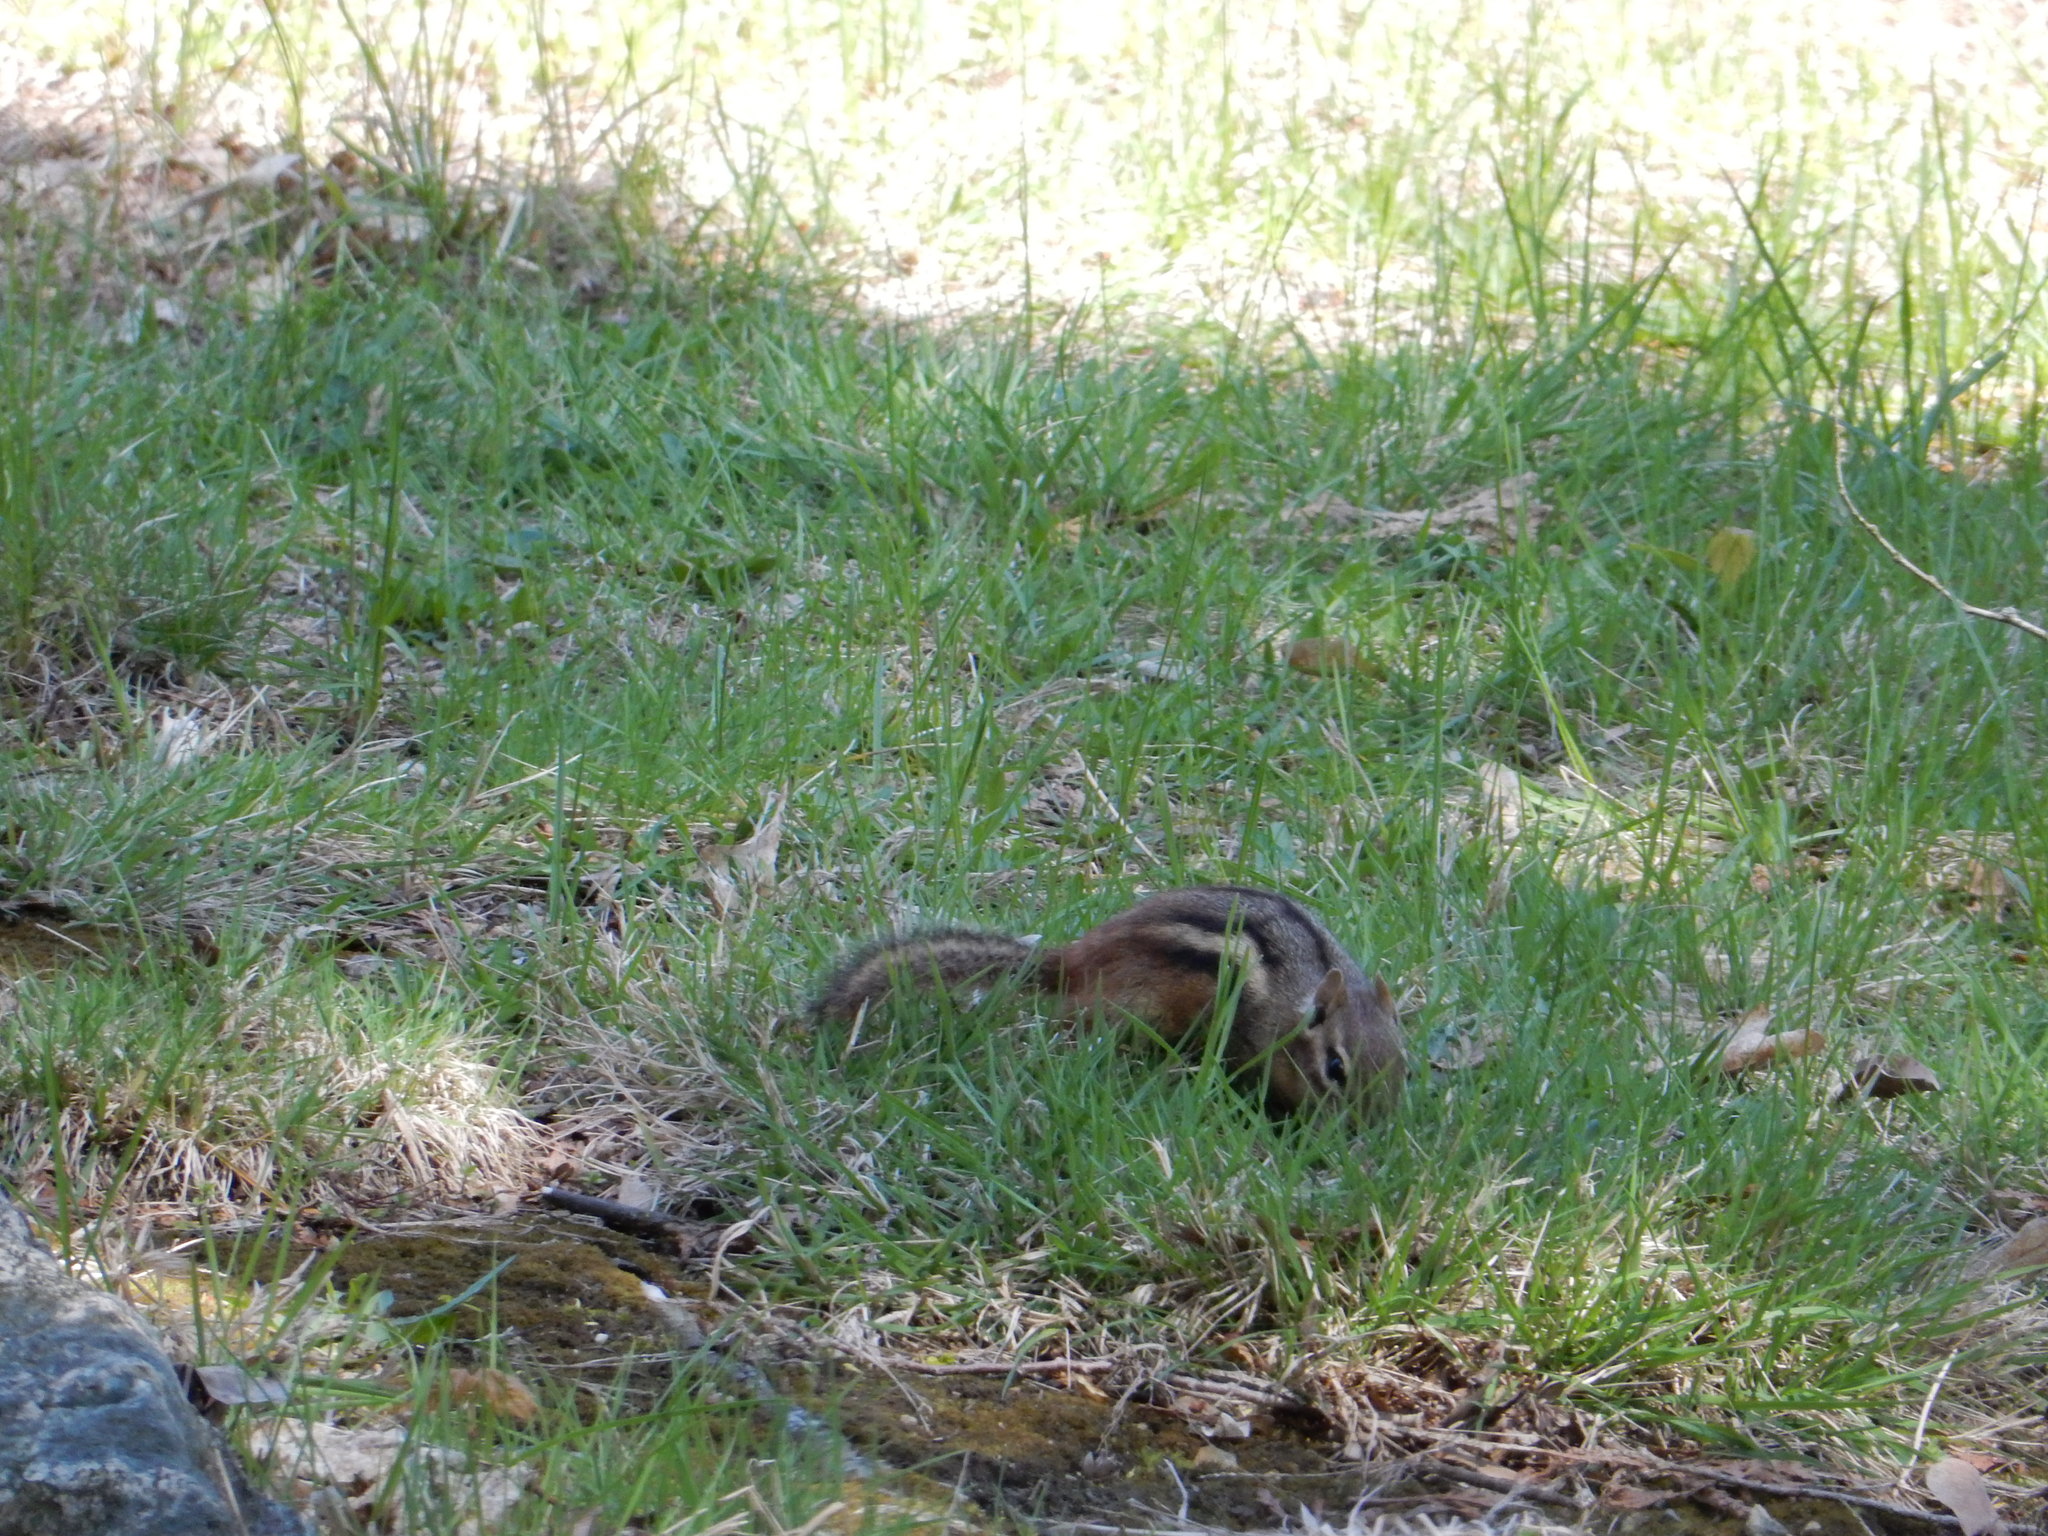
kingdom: Animalia
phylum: Chordata
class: Mammalia
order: Rodentia
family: Sciuridae
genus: Tamias
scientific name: Tamias striatus
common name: Eastern chipmunk
